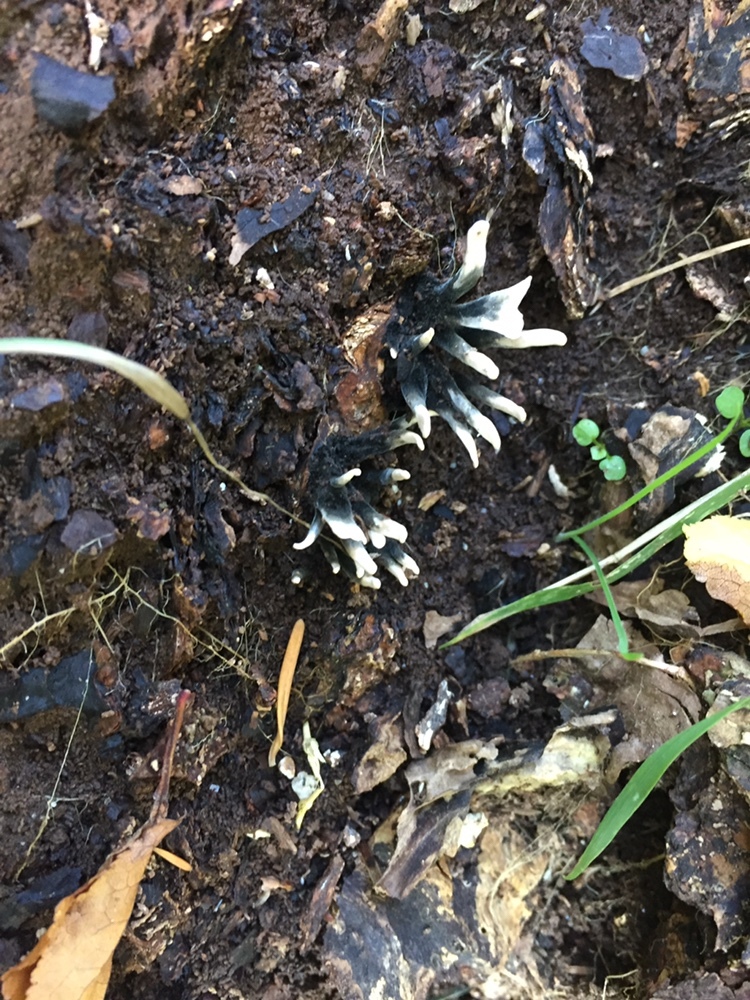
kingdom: Fungi
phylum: Ascomycota
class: Sordariomycetes
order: Xylariales
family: Xylariaceae
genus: Xylaria
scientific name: Xylaria hypoxylon
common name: Candle-snuff fungus
